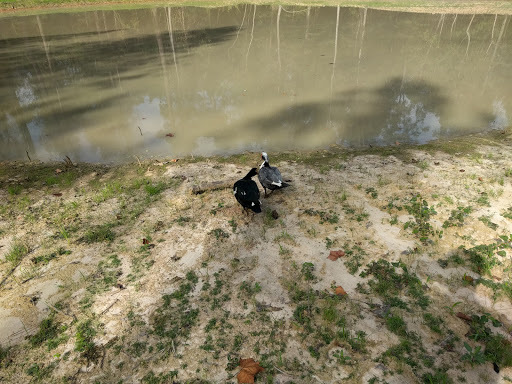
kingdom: Animalia
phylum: Chordata
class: Aves
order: Anseriformes
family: Anatidae
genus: Cairina
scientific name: Cairina moschata
